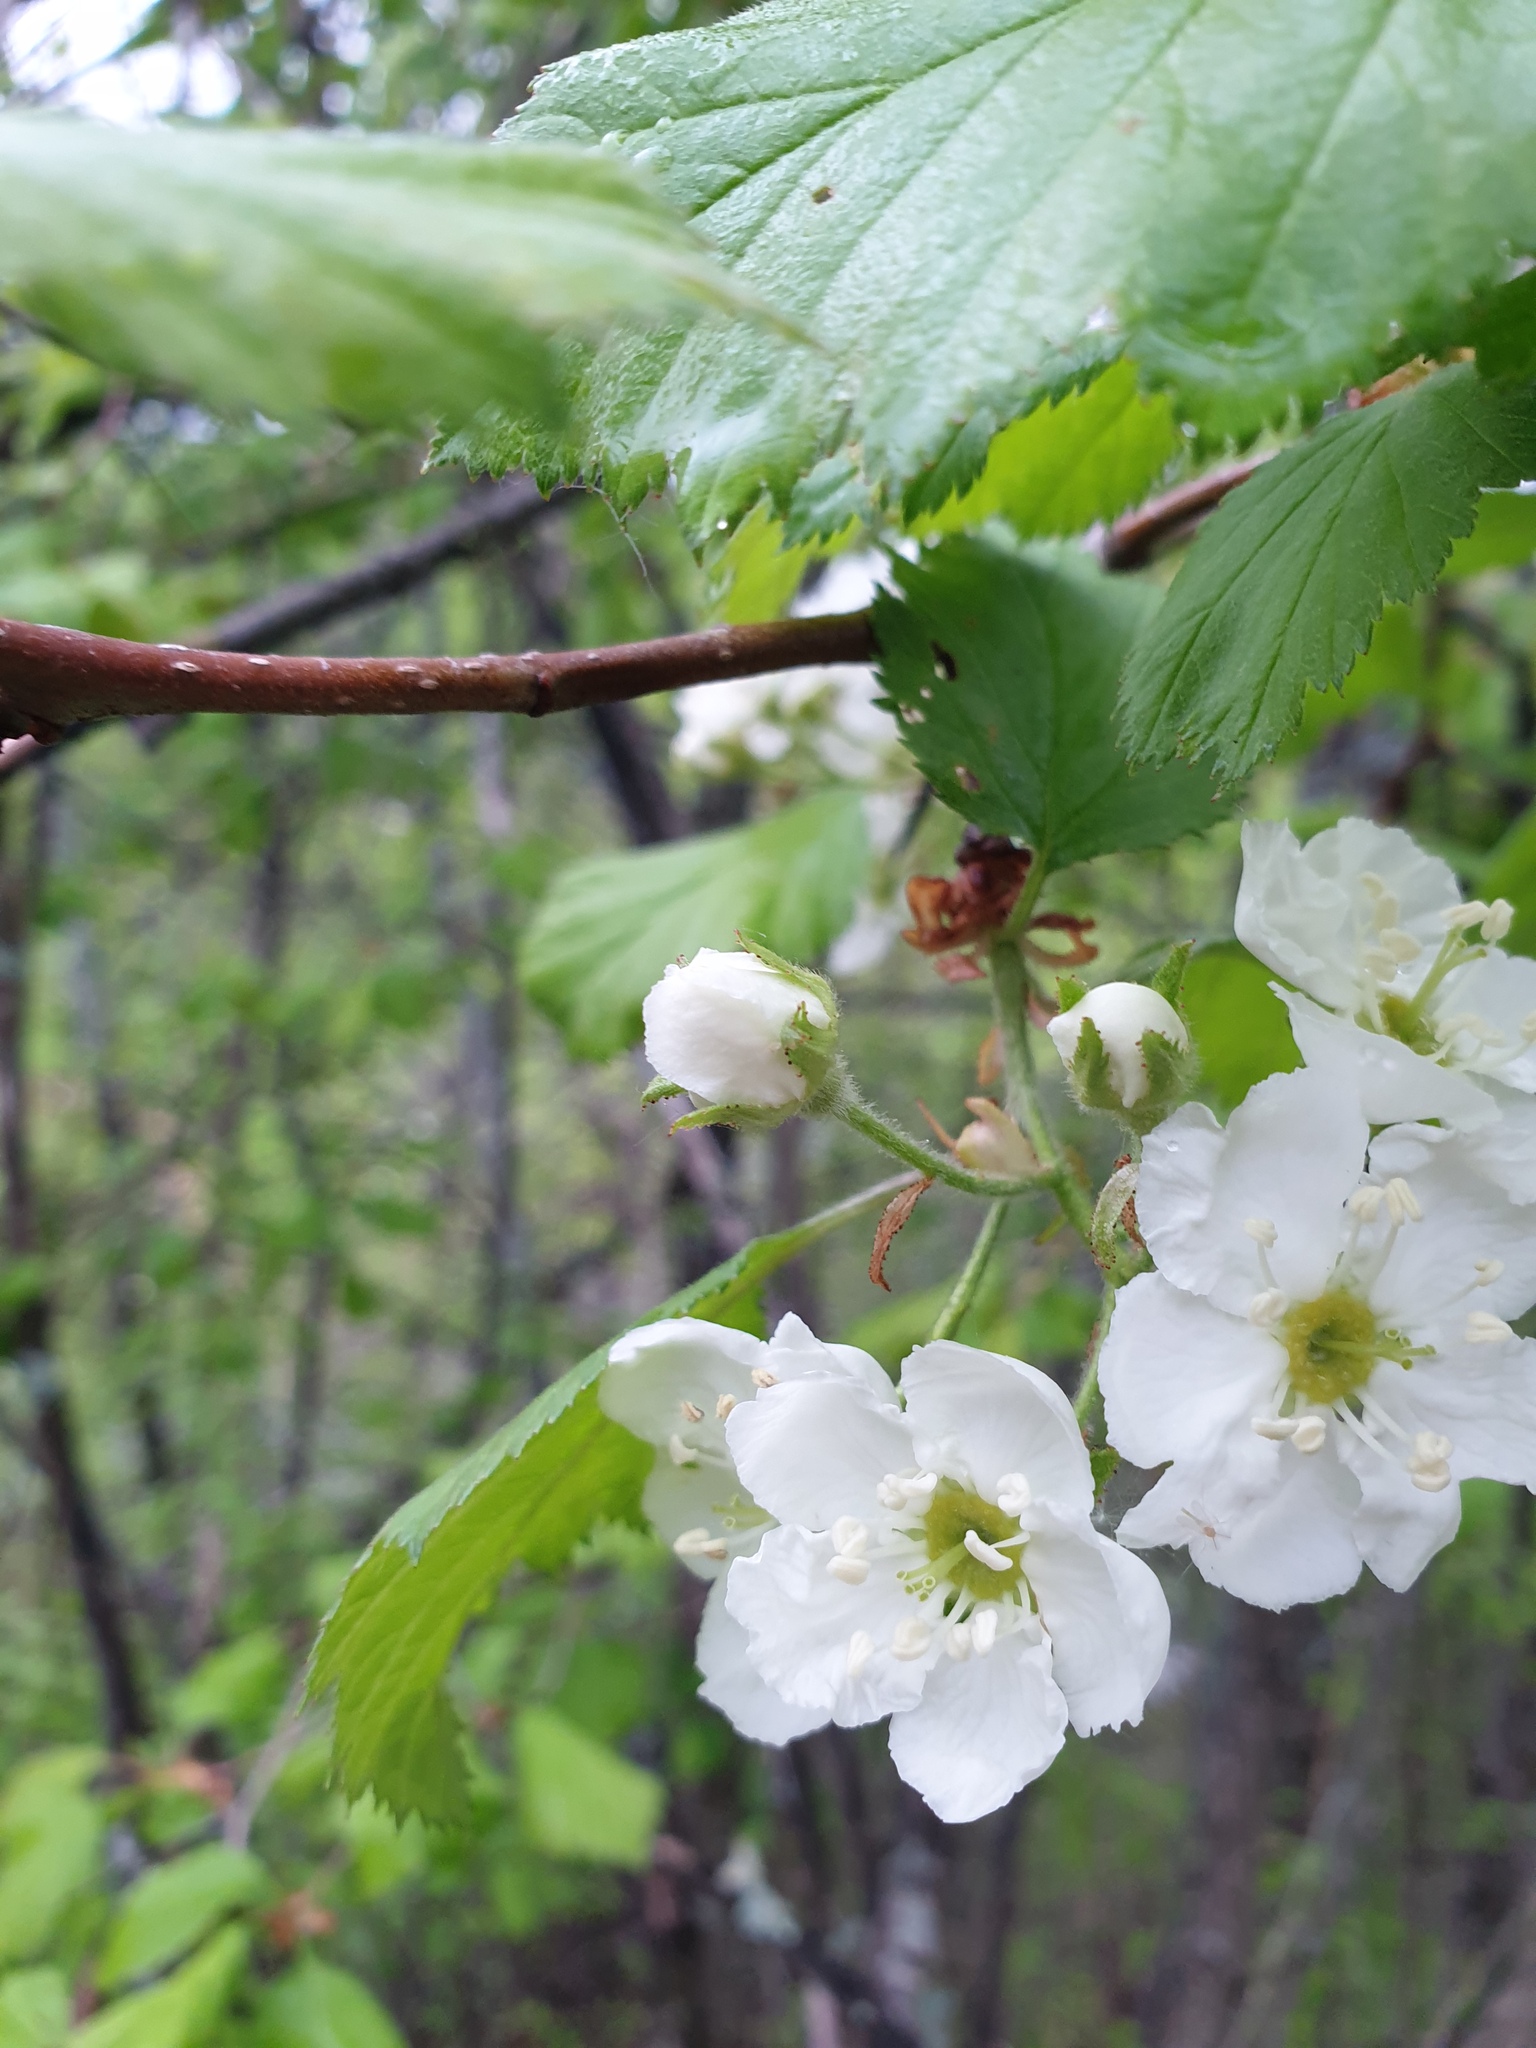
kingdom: Plantae
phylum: Tracheophyta
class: Magnoliopsida
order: Rosales
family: Rosaceae
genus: Crataegus
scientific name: Crataegus submollis
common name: Hairy cockspurthorn
